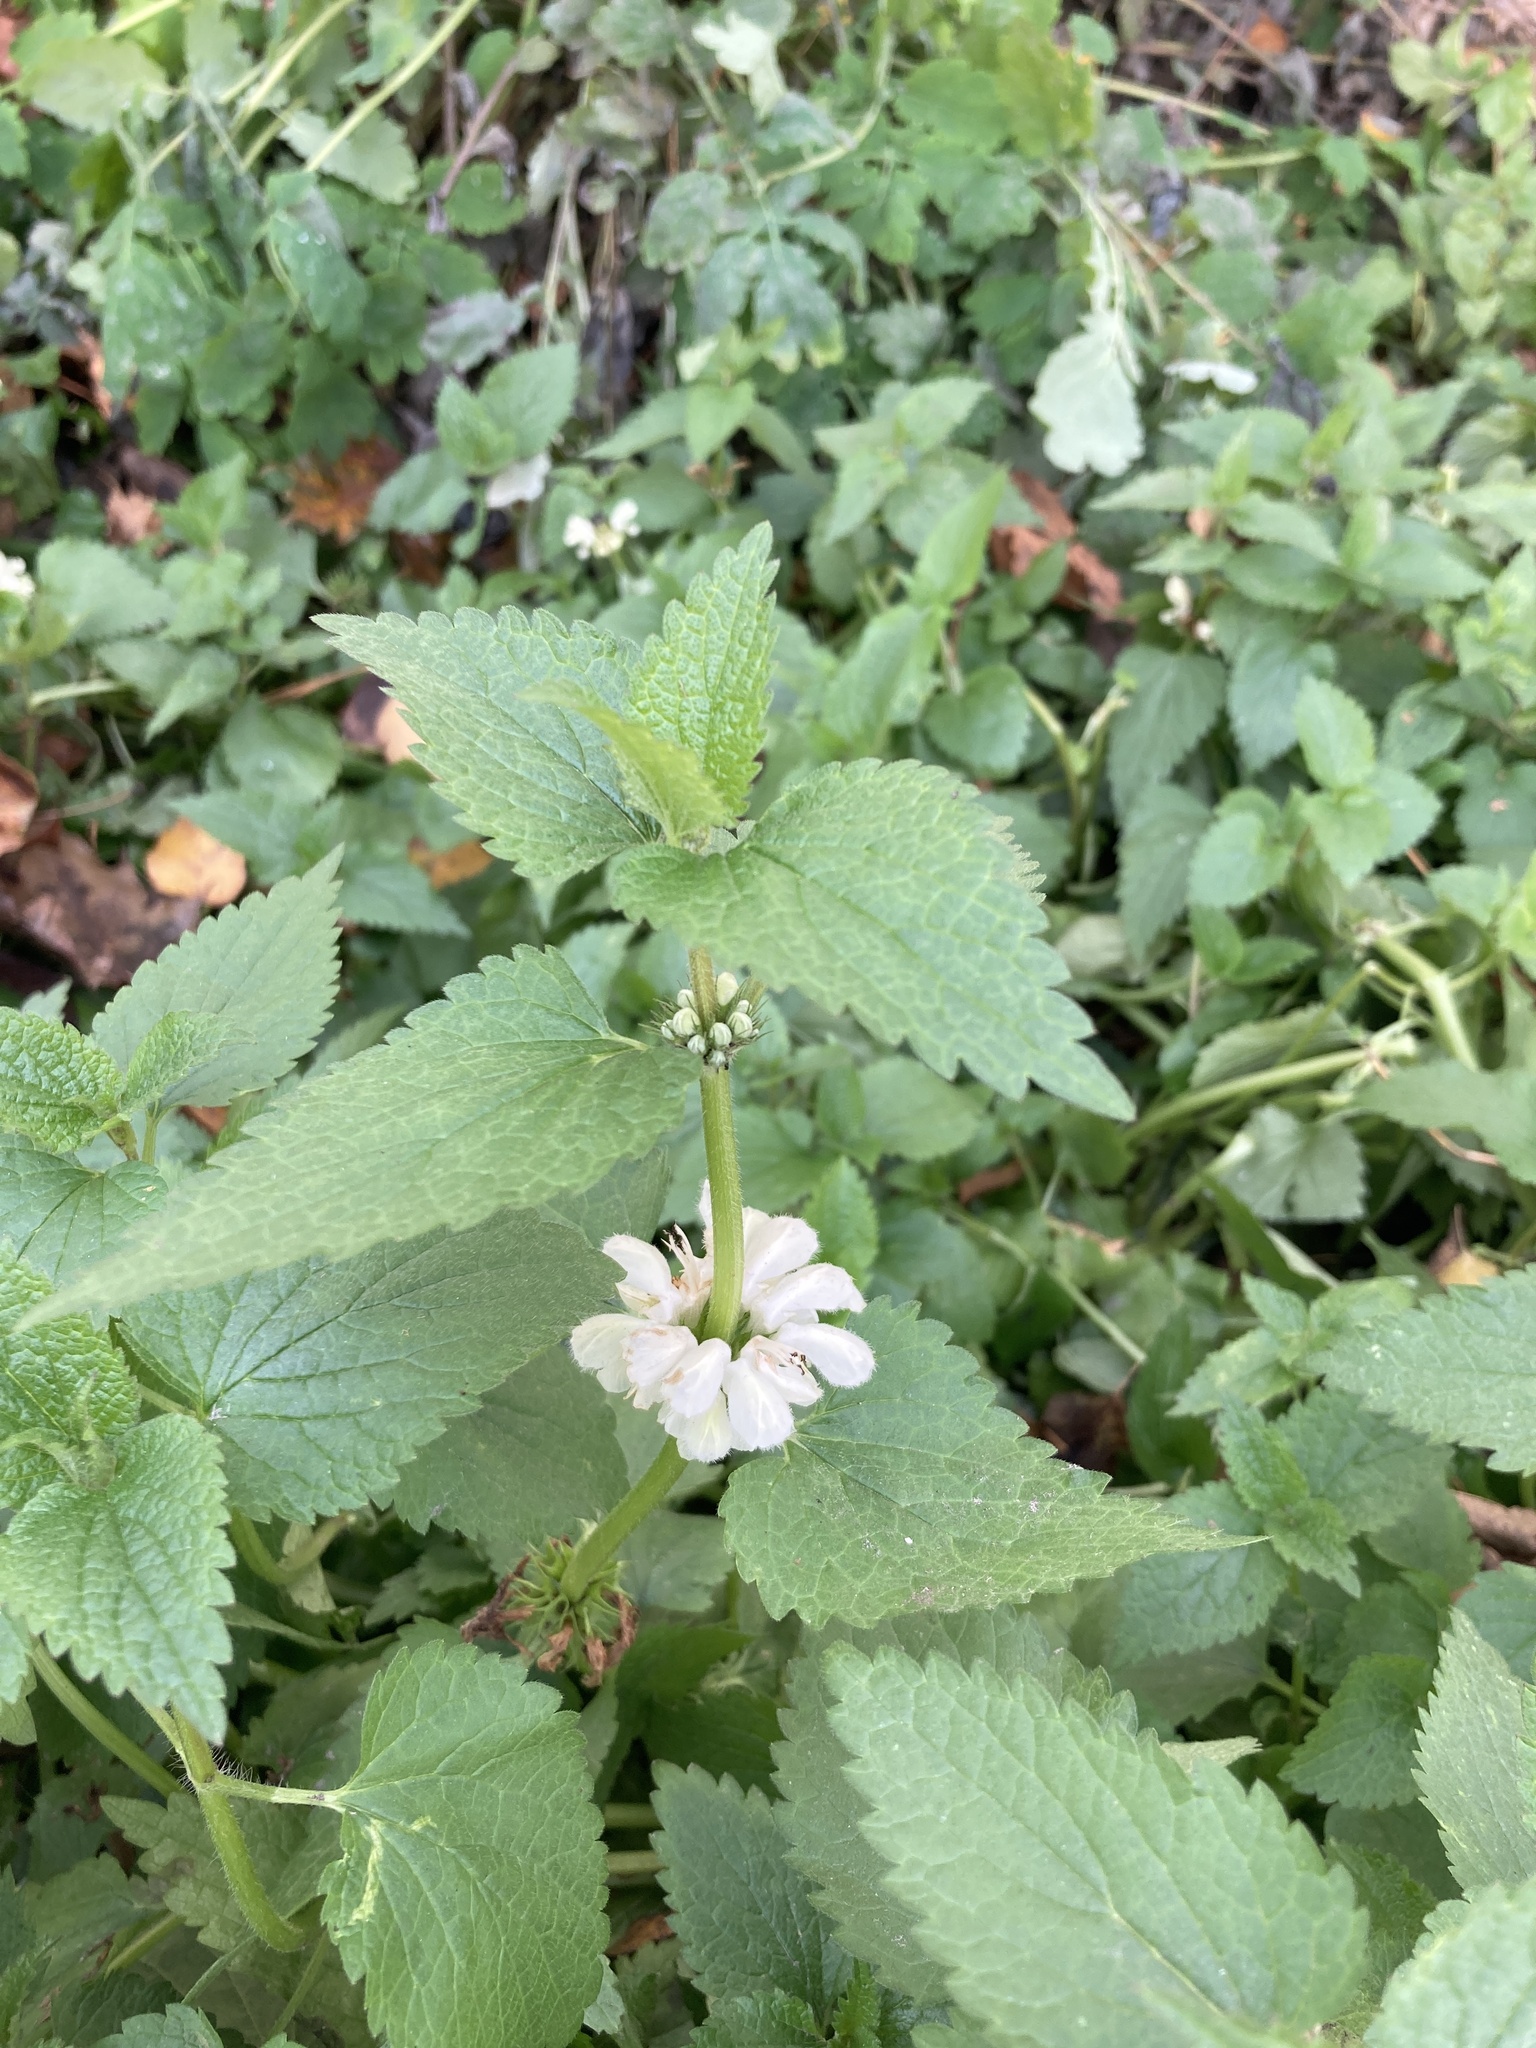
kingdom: Plantae
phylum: Tracheophyta
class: Magnoliopsida
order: Lamiales
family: Lamiaceae
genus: Lamium
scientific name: Lamium album
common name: White dead-nettle
